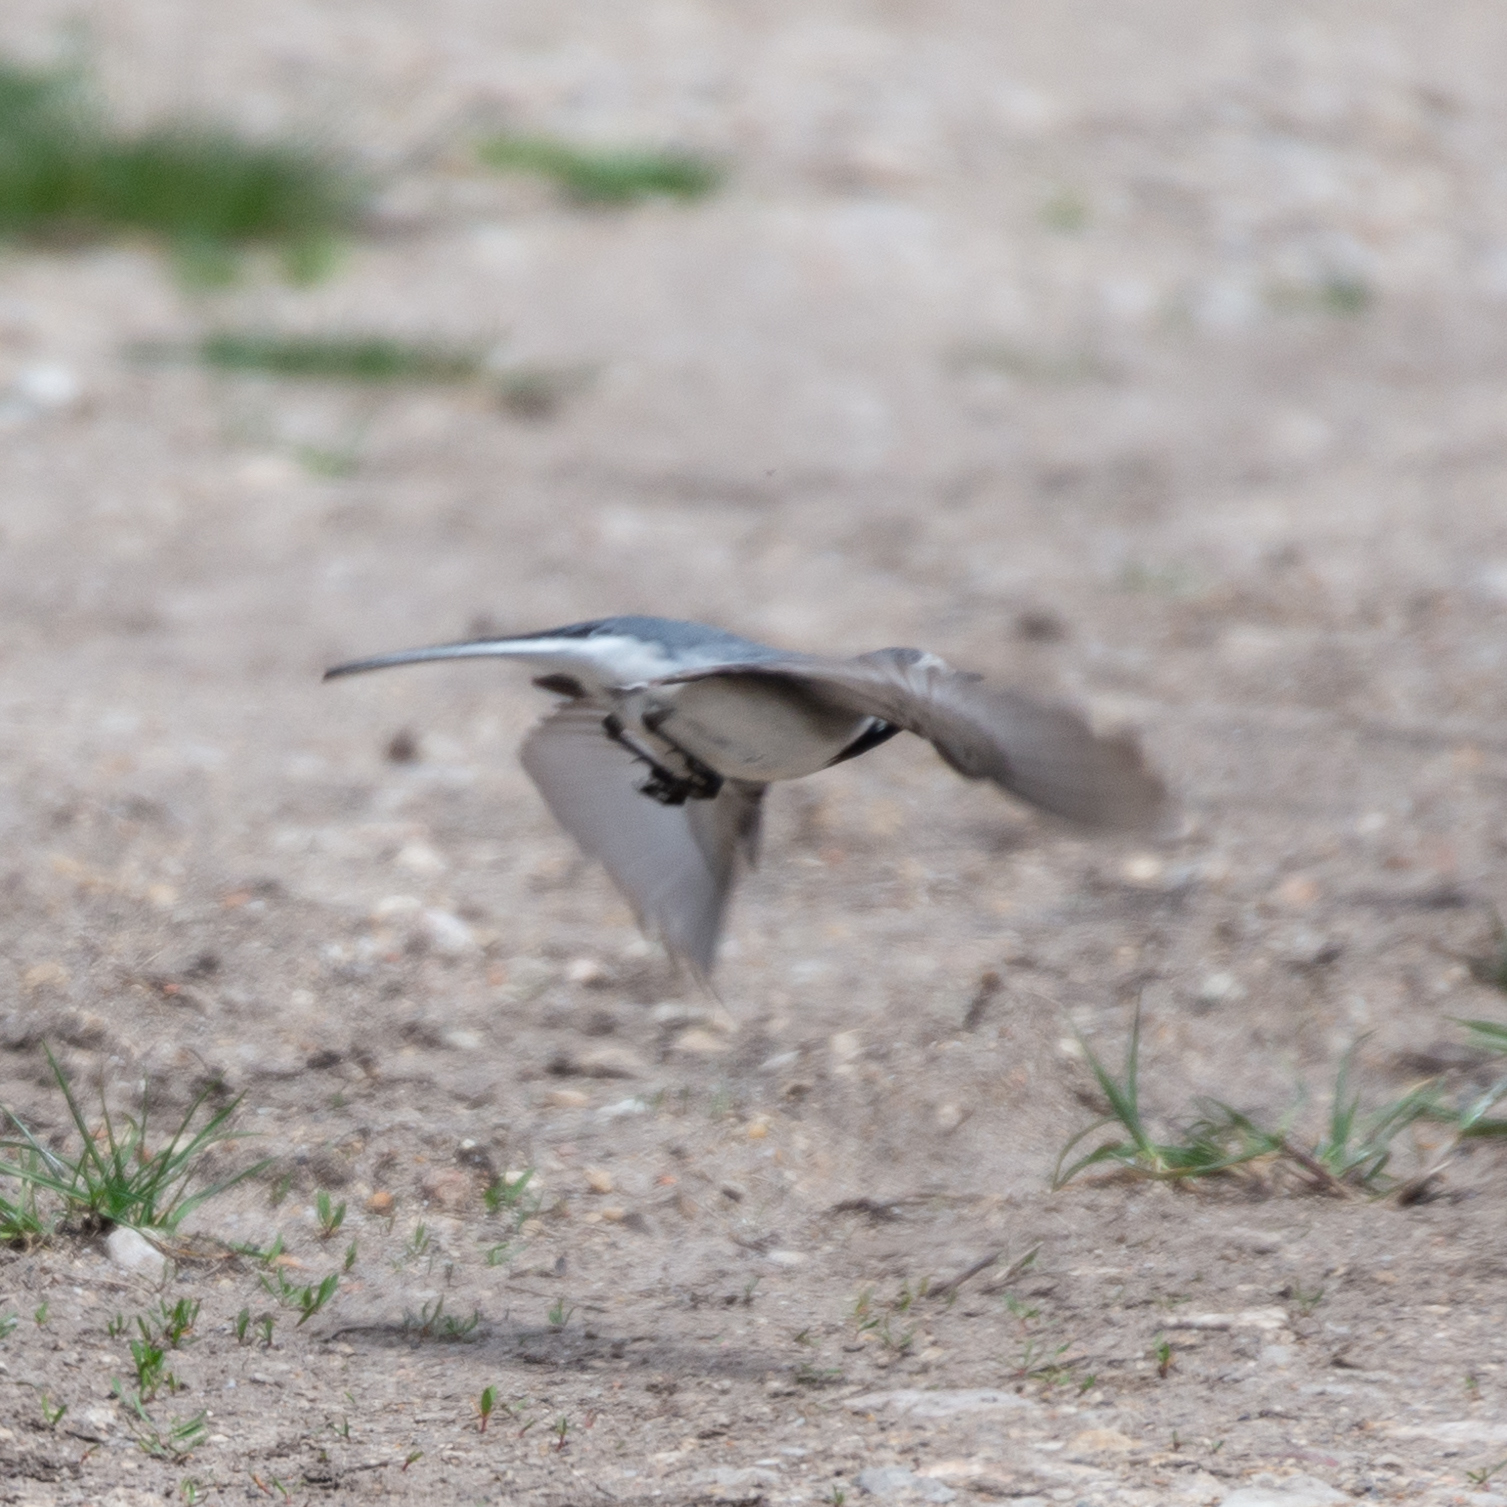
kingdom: Animalia
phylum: Chordata
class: Aves
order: Passeriformes
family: Motacillidae
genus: Motacilla
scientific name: Motacilla alba
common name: White wagtail
